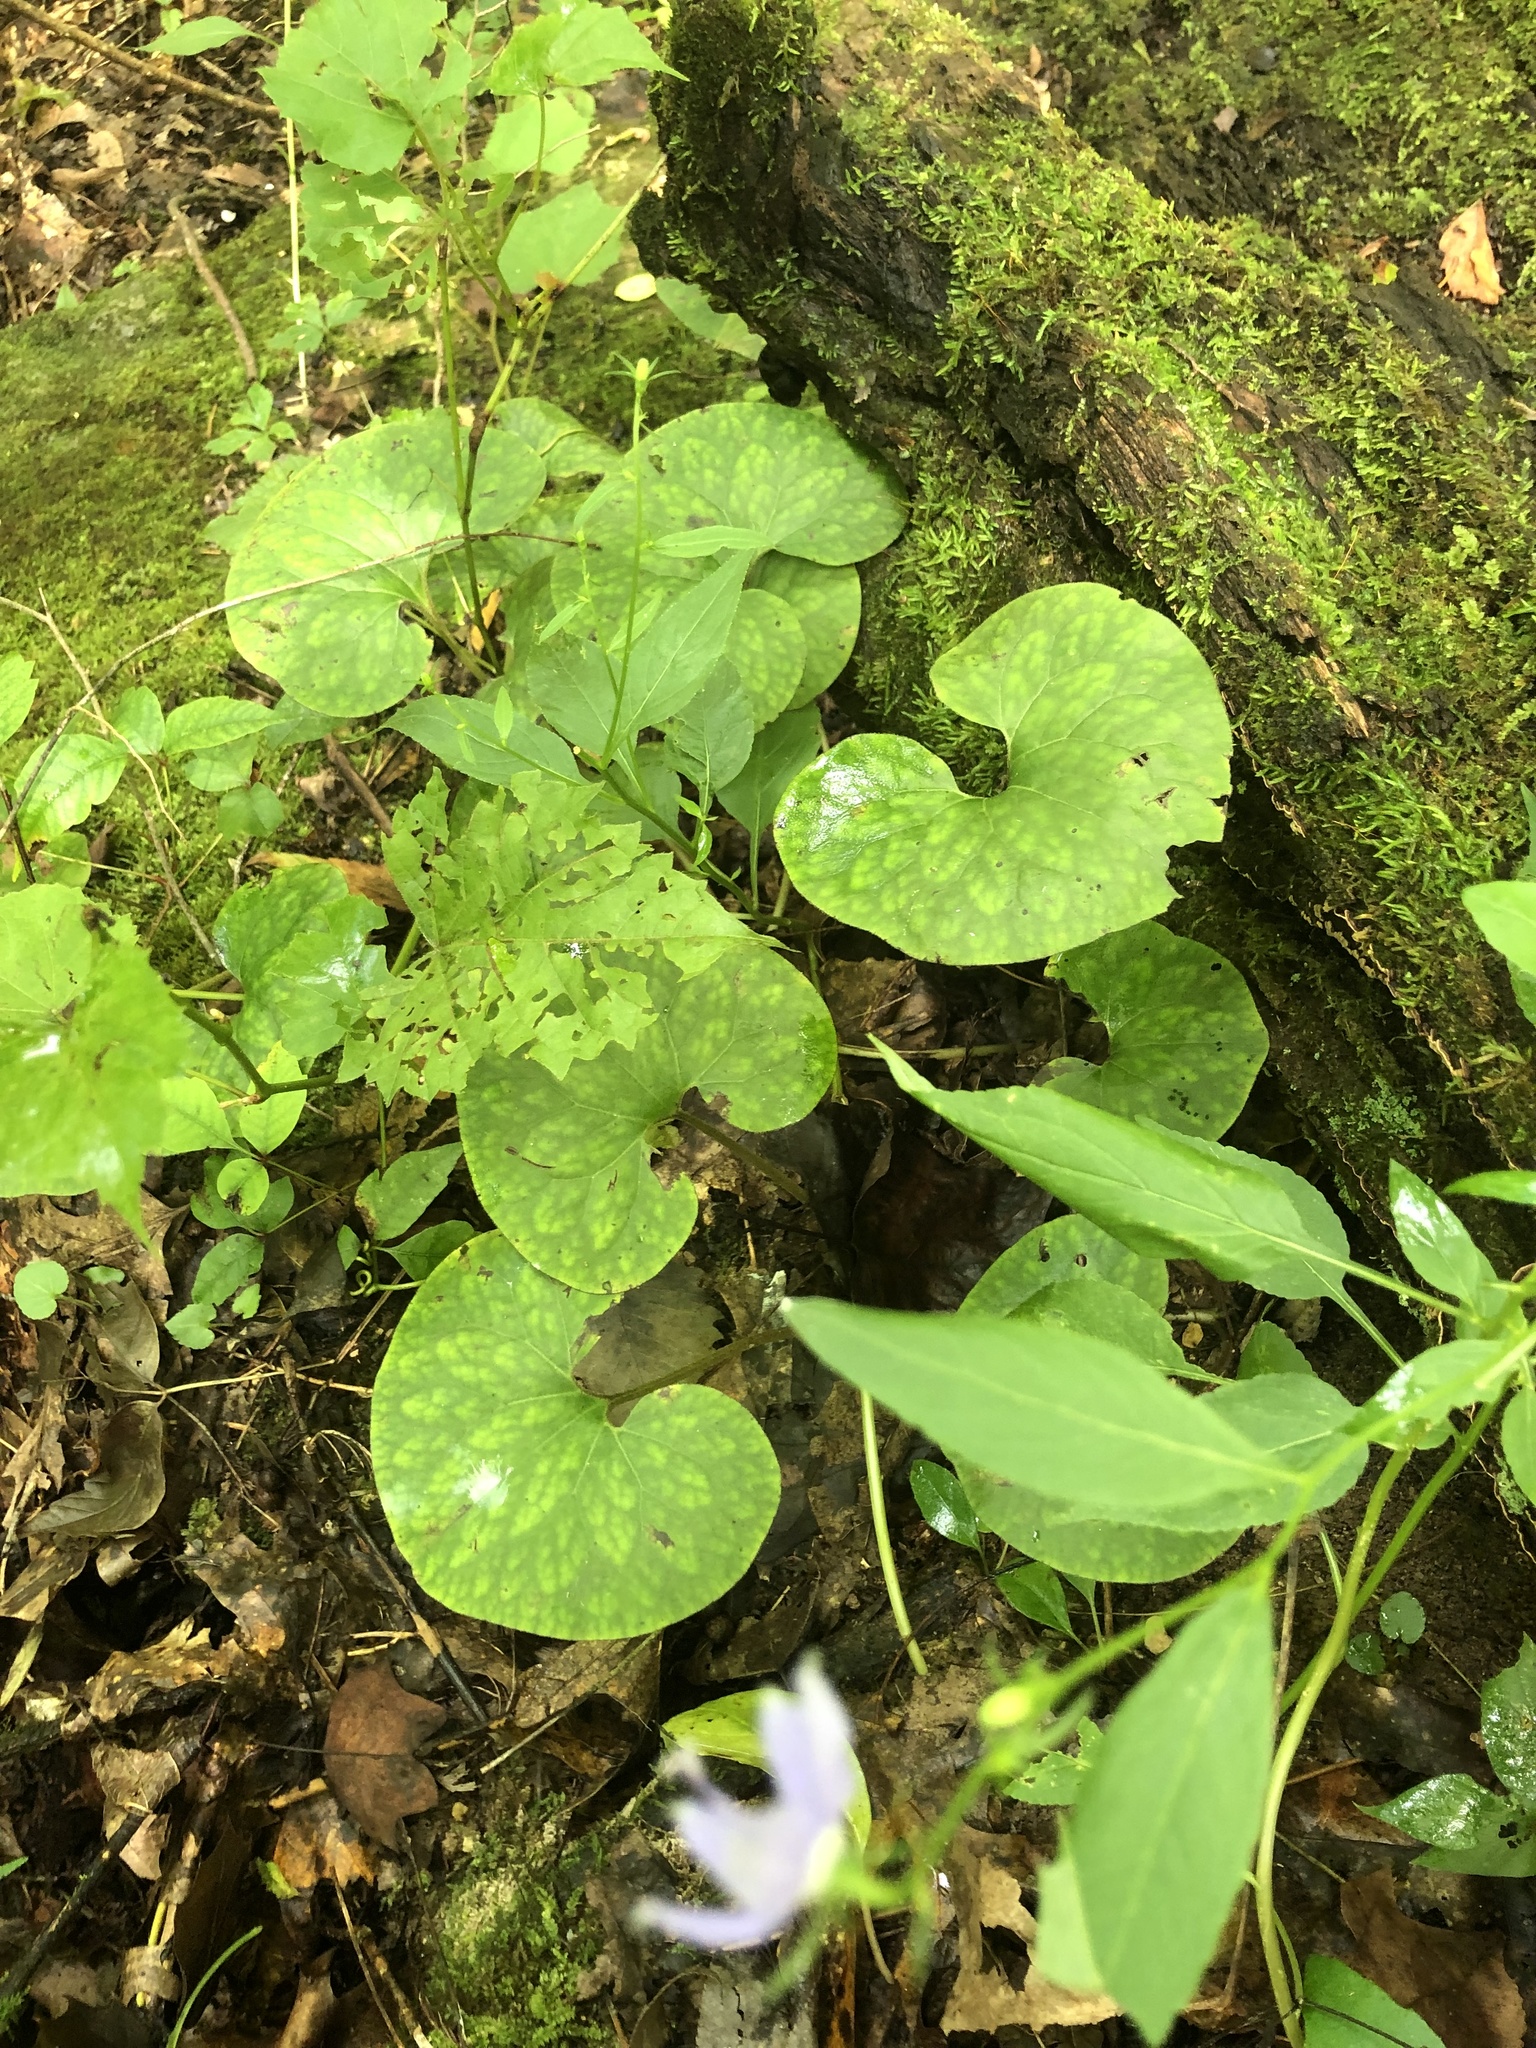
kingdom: Plantae
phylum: Tracheophyta
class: Magnoliopsida
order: Piperales
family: Aristolochiaceae
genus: Asarum
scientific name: Asarum canadense
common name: Wild ginger
